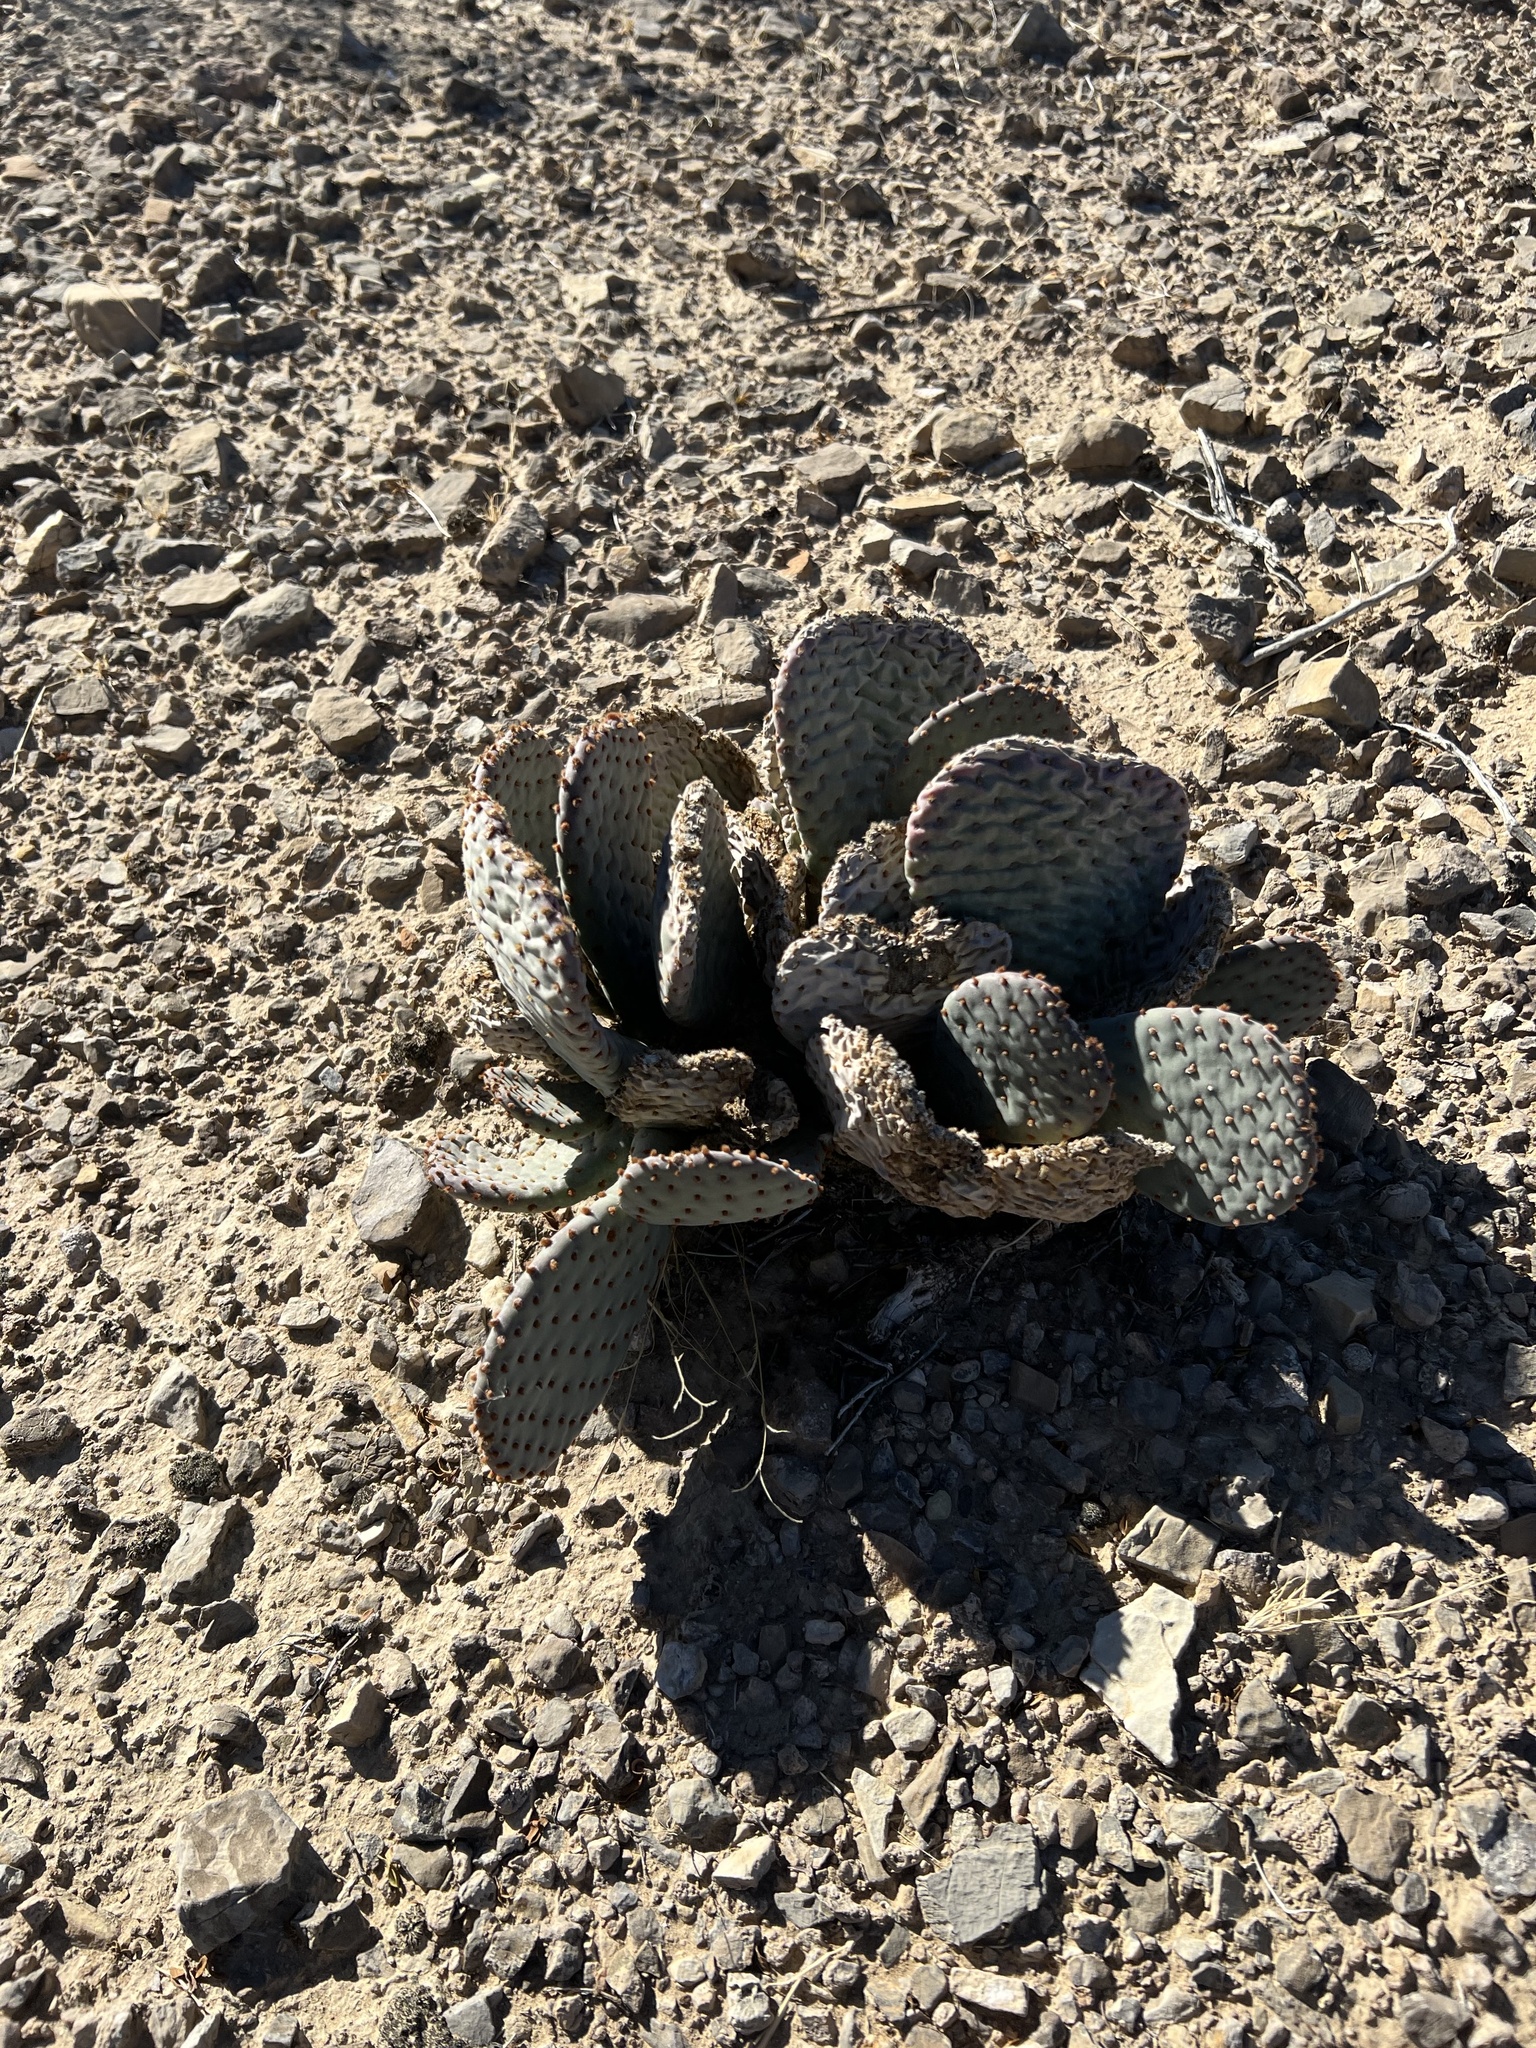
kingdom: Plantae
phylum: Tracheophyta
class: Magnoliopsida
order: Caryophyllales
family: Cactaceae
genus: Opuntia
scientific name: Opuntia basilaris
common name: Beavertail prickly-pear
